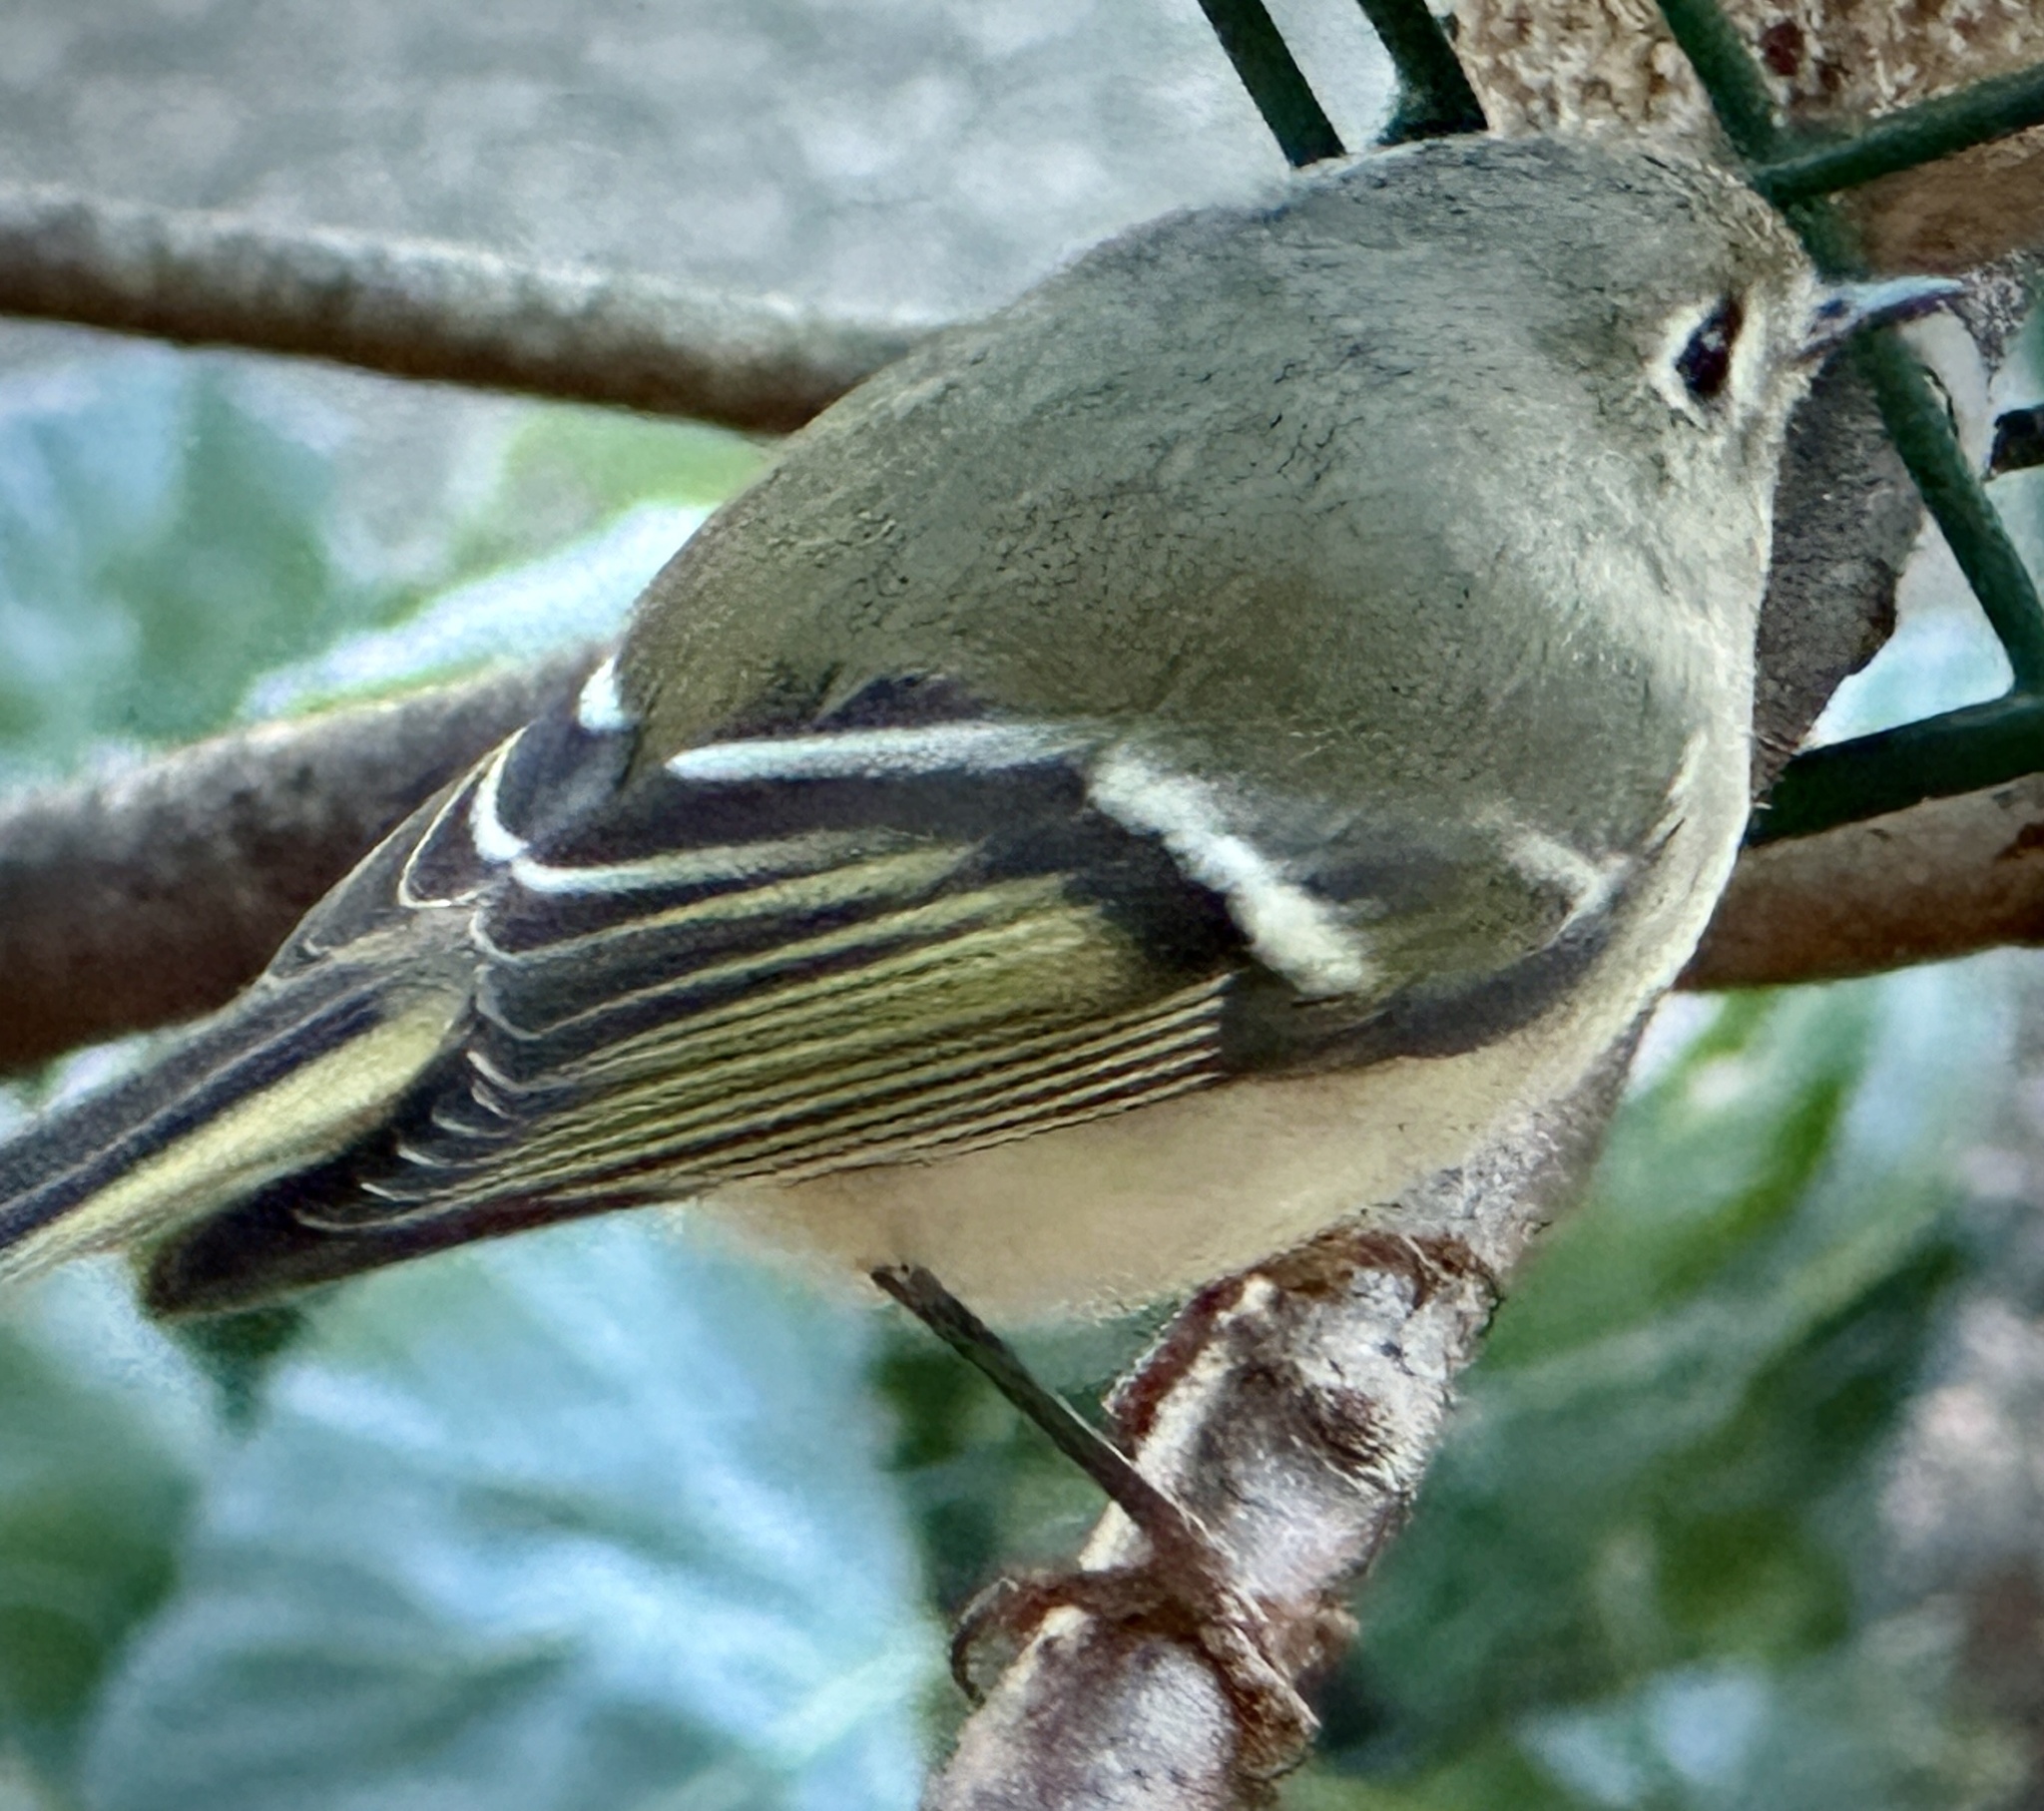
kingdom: Animalia
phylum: Chordata
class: Aves
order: Passeriformes
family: Regulidae
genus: Regulus
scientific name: Regulus calendula
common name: Ruby-crowned kinglet
